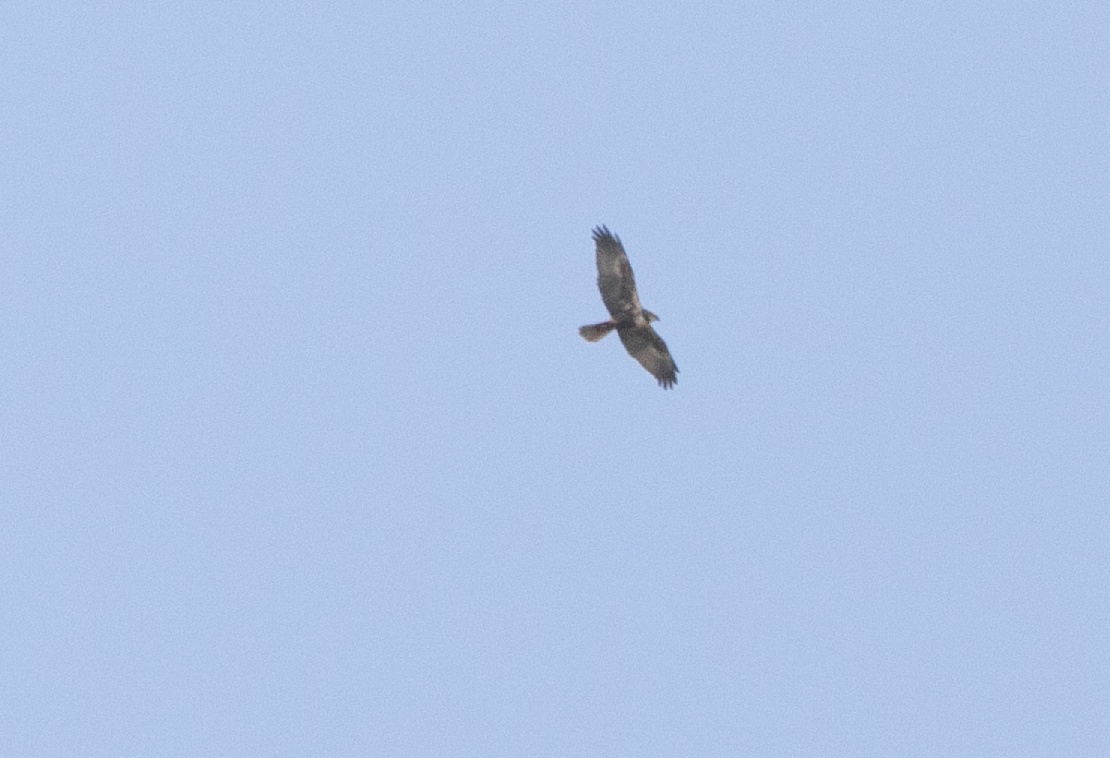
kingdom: Animalia
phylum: Chordata
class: Aves
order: Accipitriformes
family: Accipitridae
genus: Circus
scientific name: Circus aeruginosus
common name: Western marsh harrier
